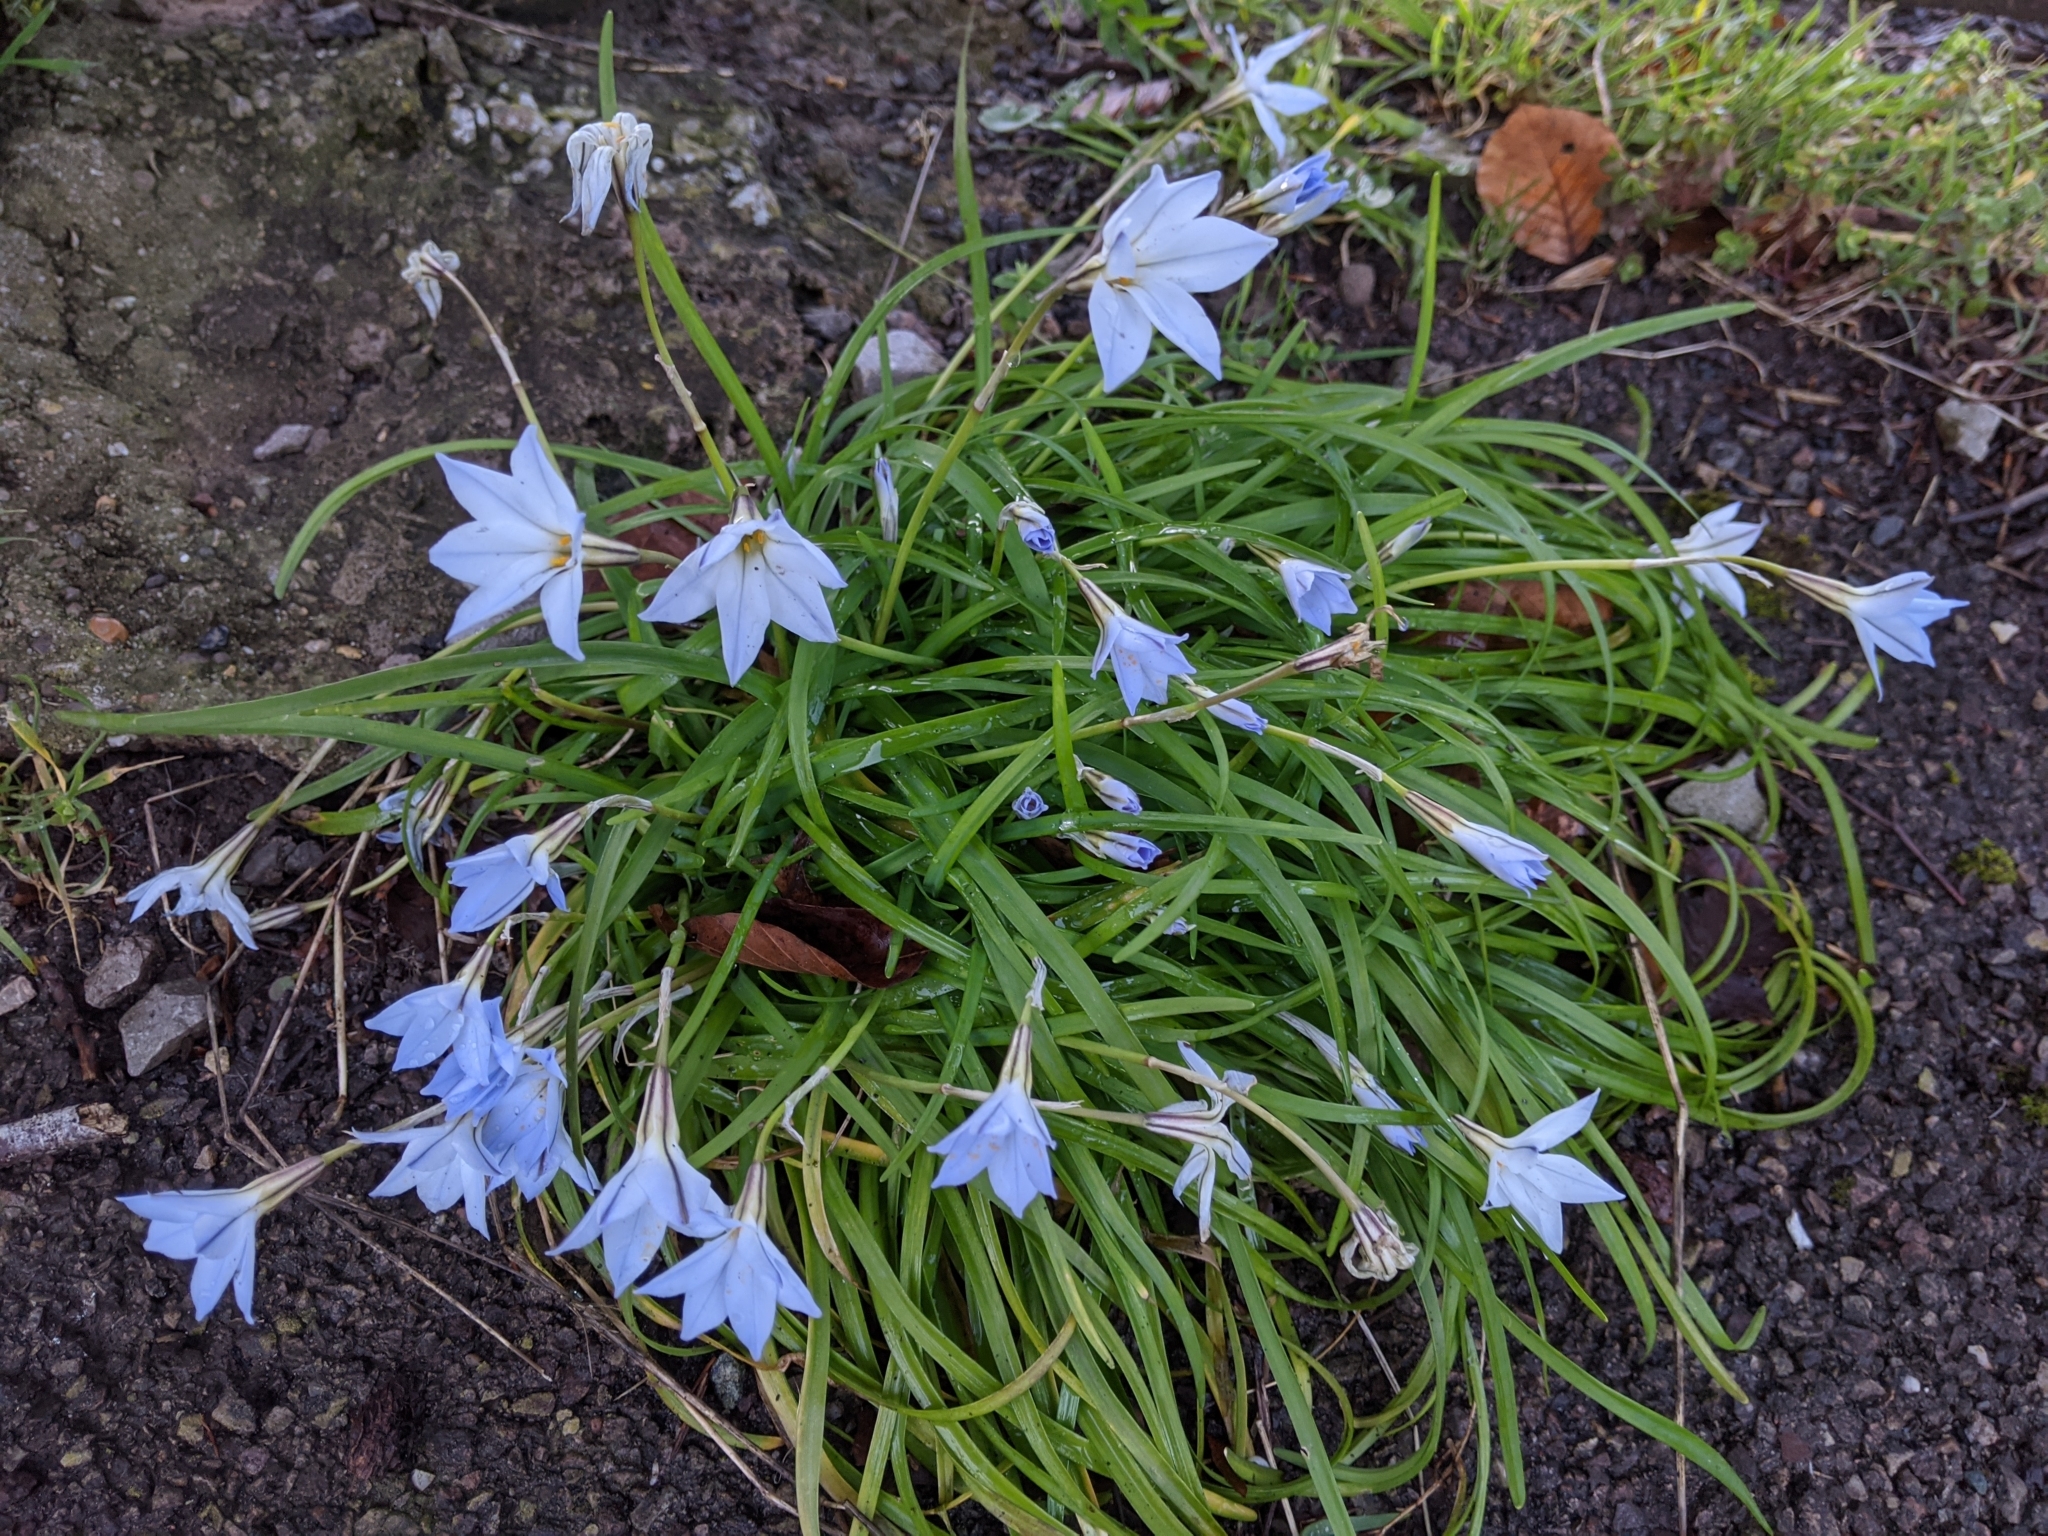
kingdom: Plantae
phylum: Tracheophyta
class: Liliopsida
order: Asparagales
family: Amaryllidaceae
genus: Ipheion
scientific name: Ipheion uniflorum
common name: Spring starflower
